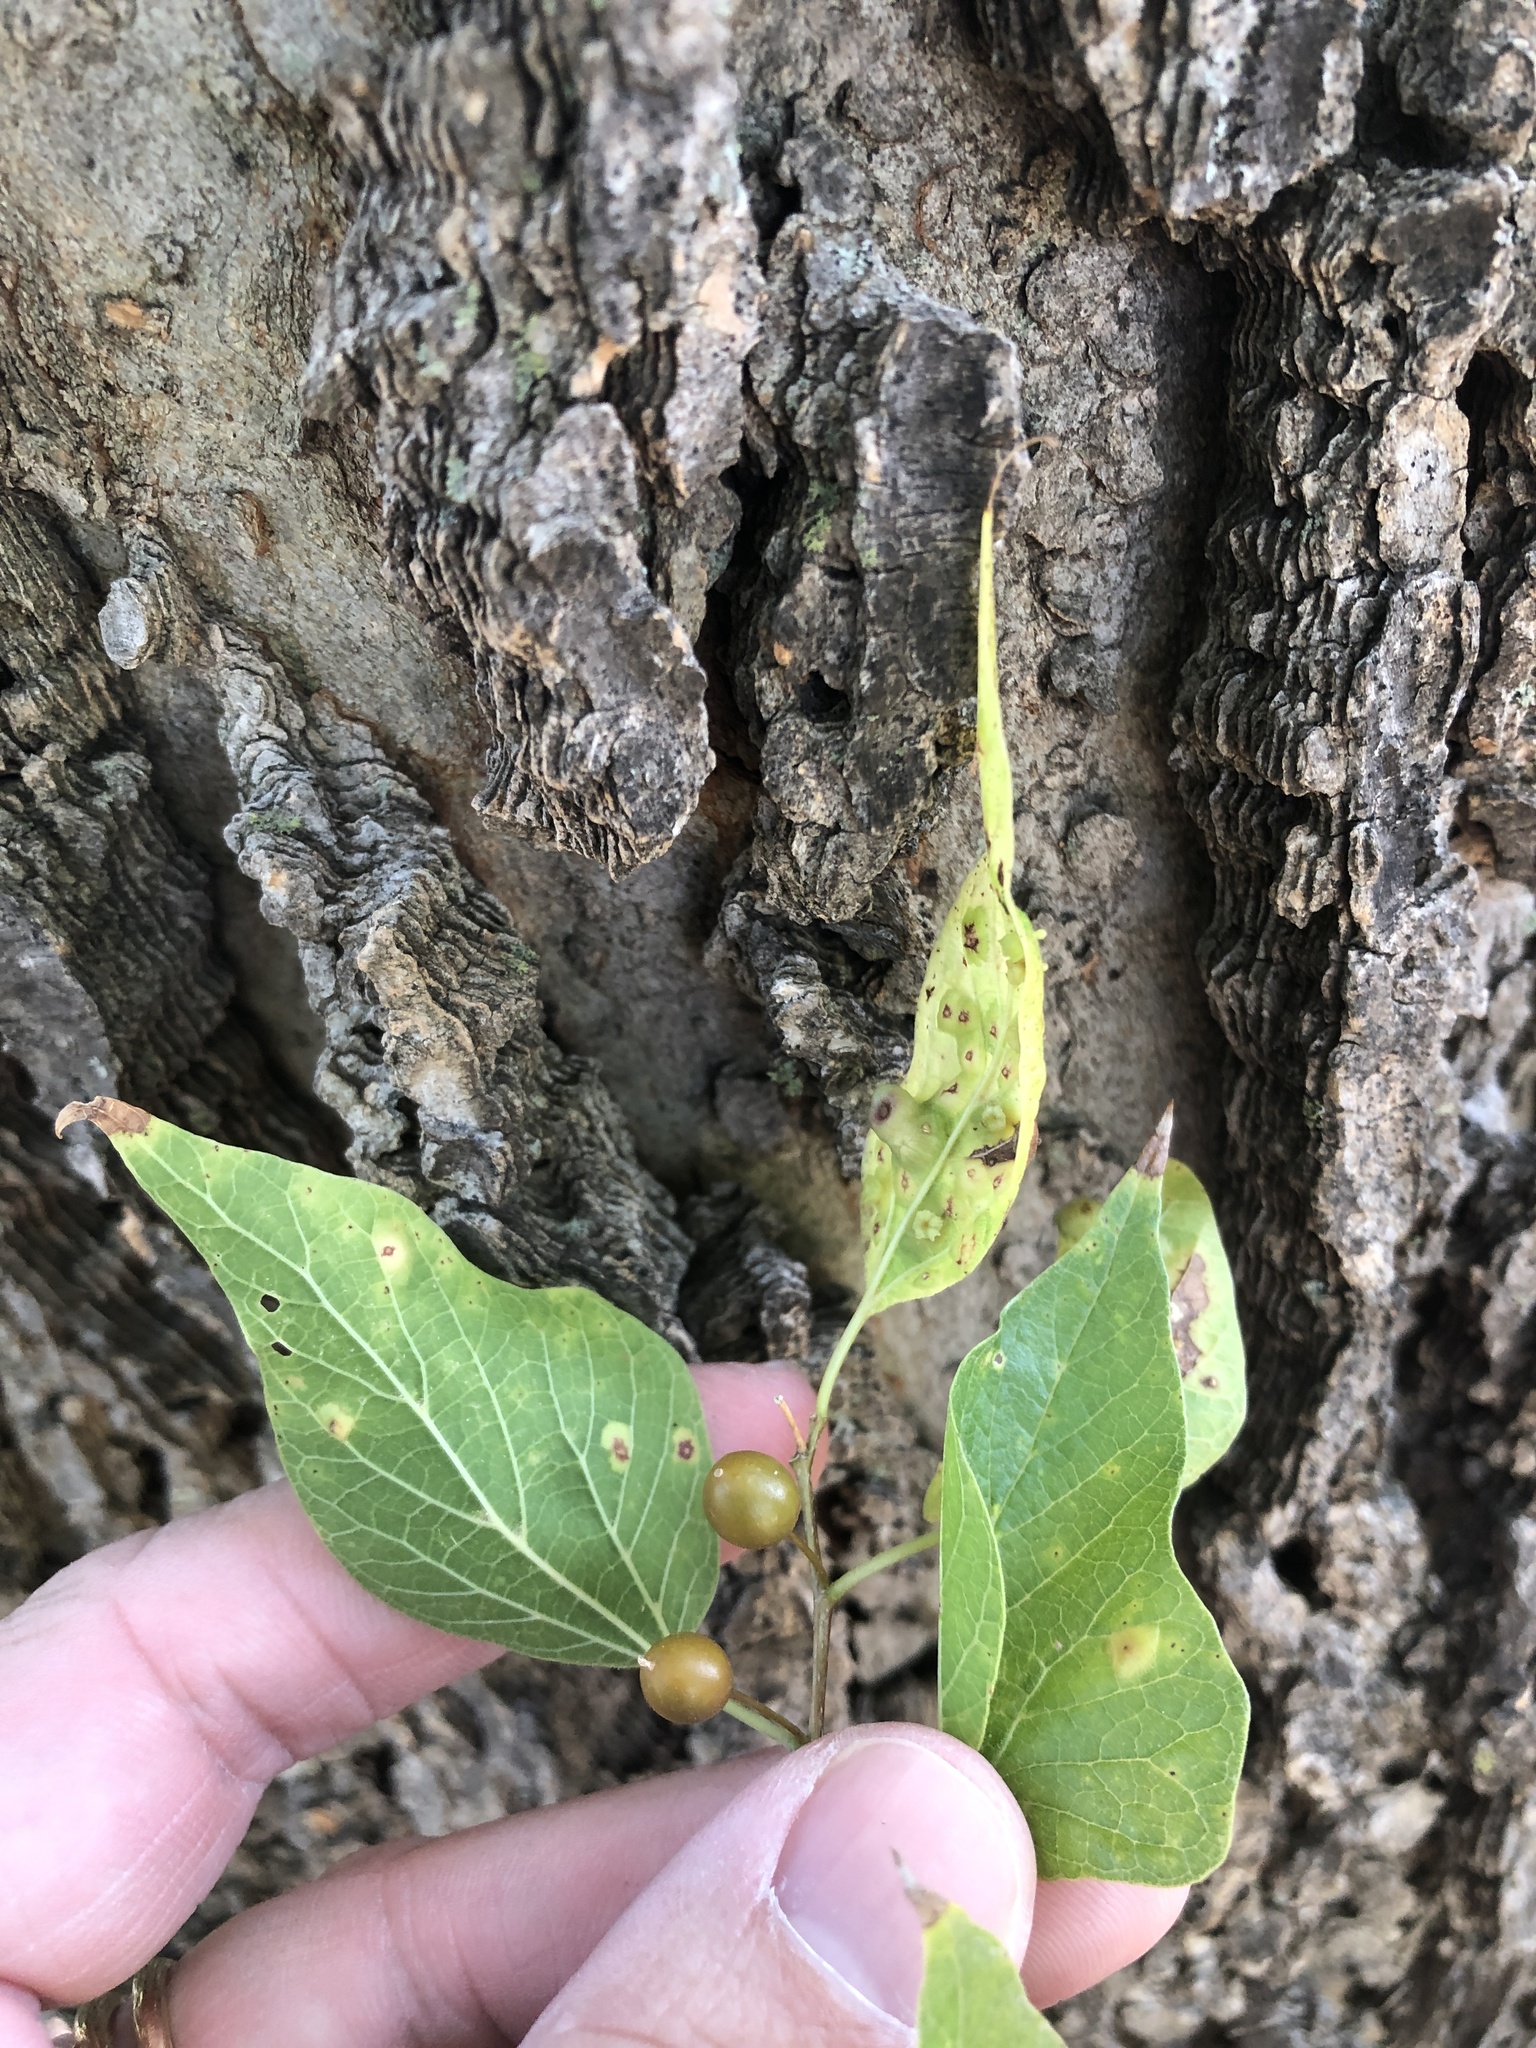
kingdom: Plantae
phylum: Tracheophyta
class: Magnoliopsida
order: Rosales
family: Cannabaceae
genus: Celtis
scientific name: Celtis laevigata
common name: Sugarberry
